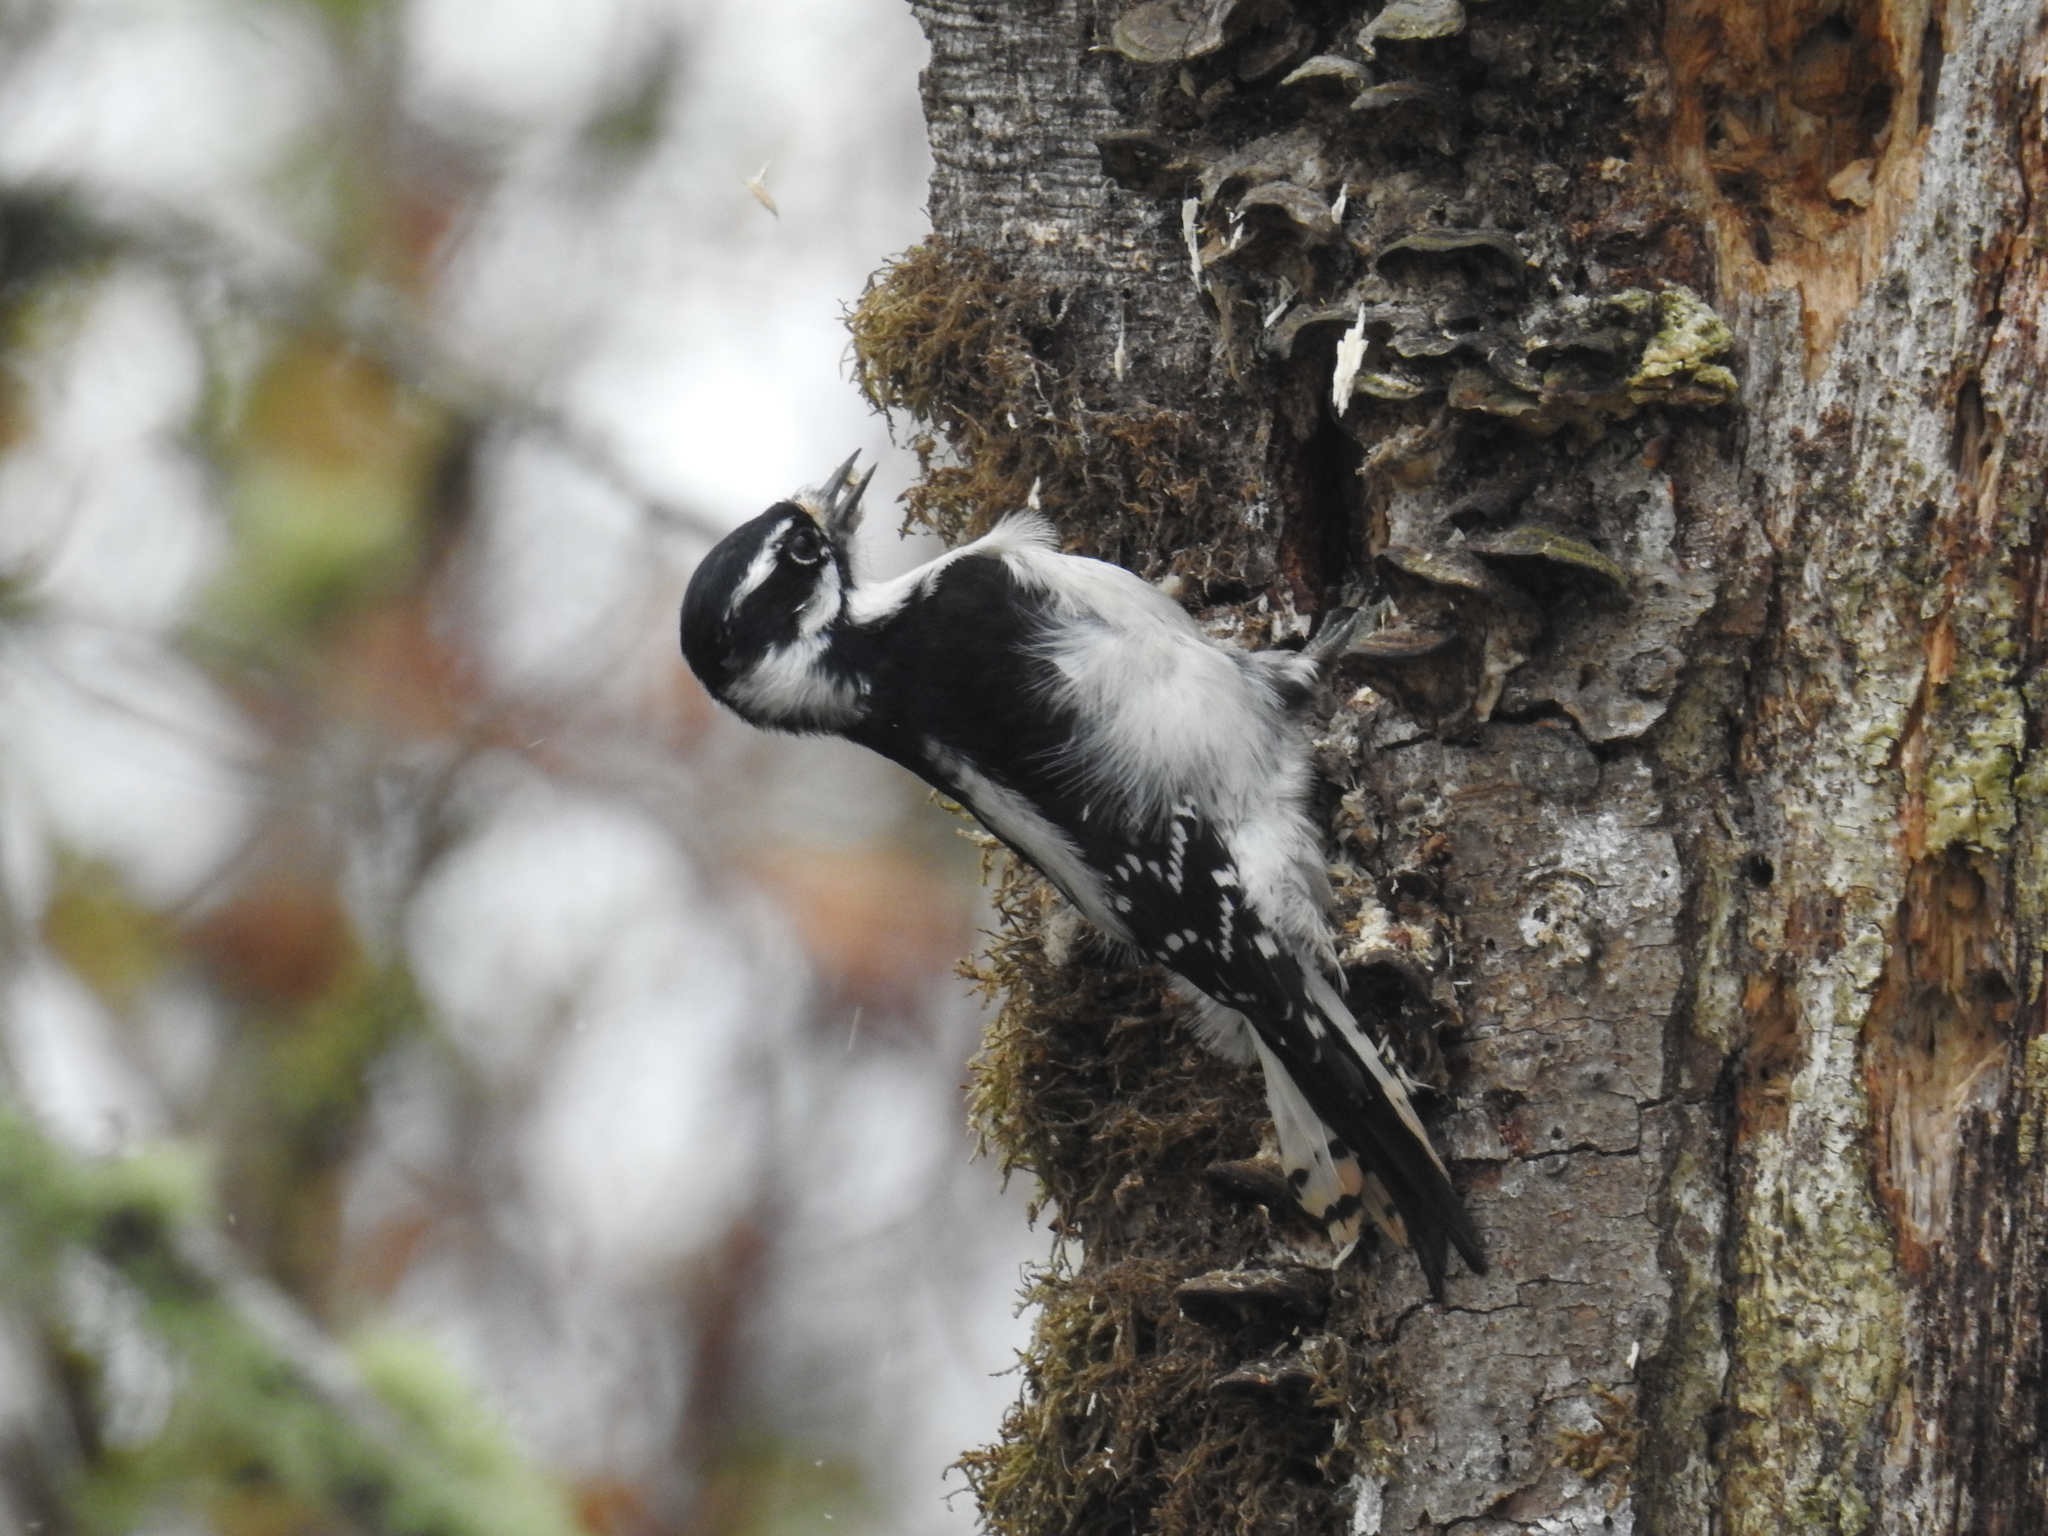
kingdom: Animalia
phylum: Chordata
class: Aves
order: Piciformes
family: Picidae
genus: Dryobates
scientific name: Dryobates pubescens
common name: Downy woodpecker
